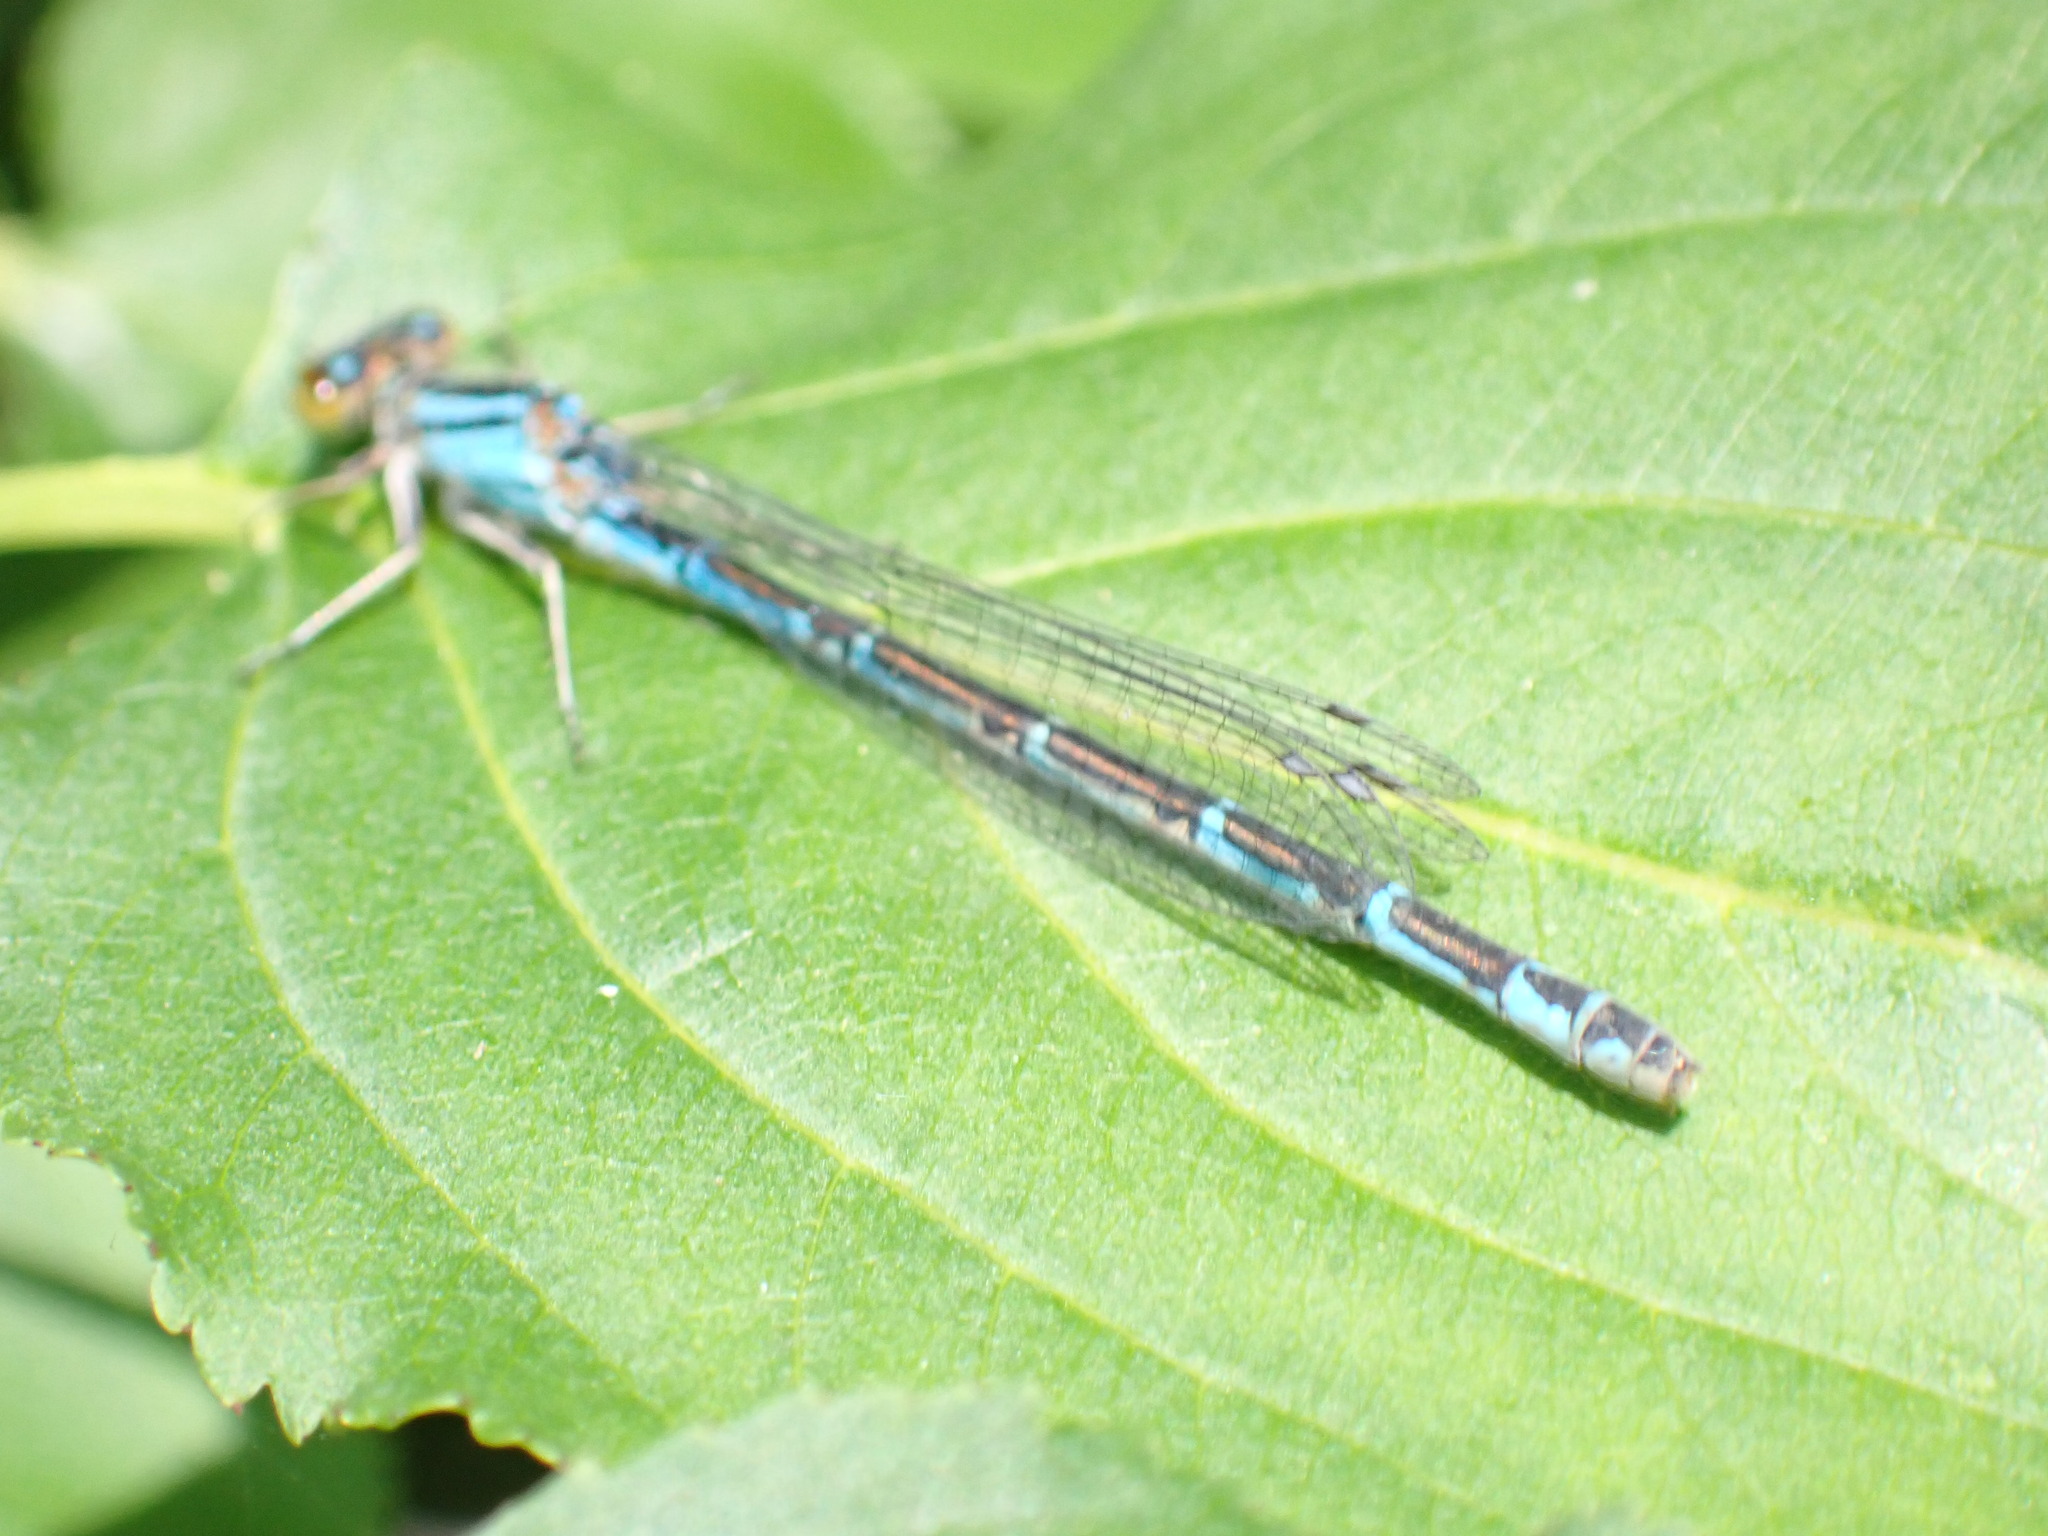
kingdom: Animalia
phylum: Arthropoda
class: Insecta
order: Odonata
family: Coenagrionidae
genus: Enallagma
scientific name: Enallagma cyathigerum
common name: Common blue damselfly
